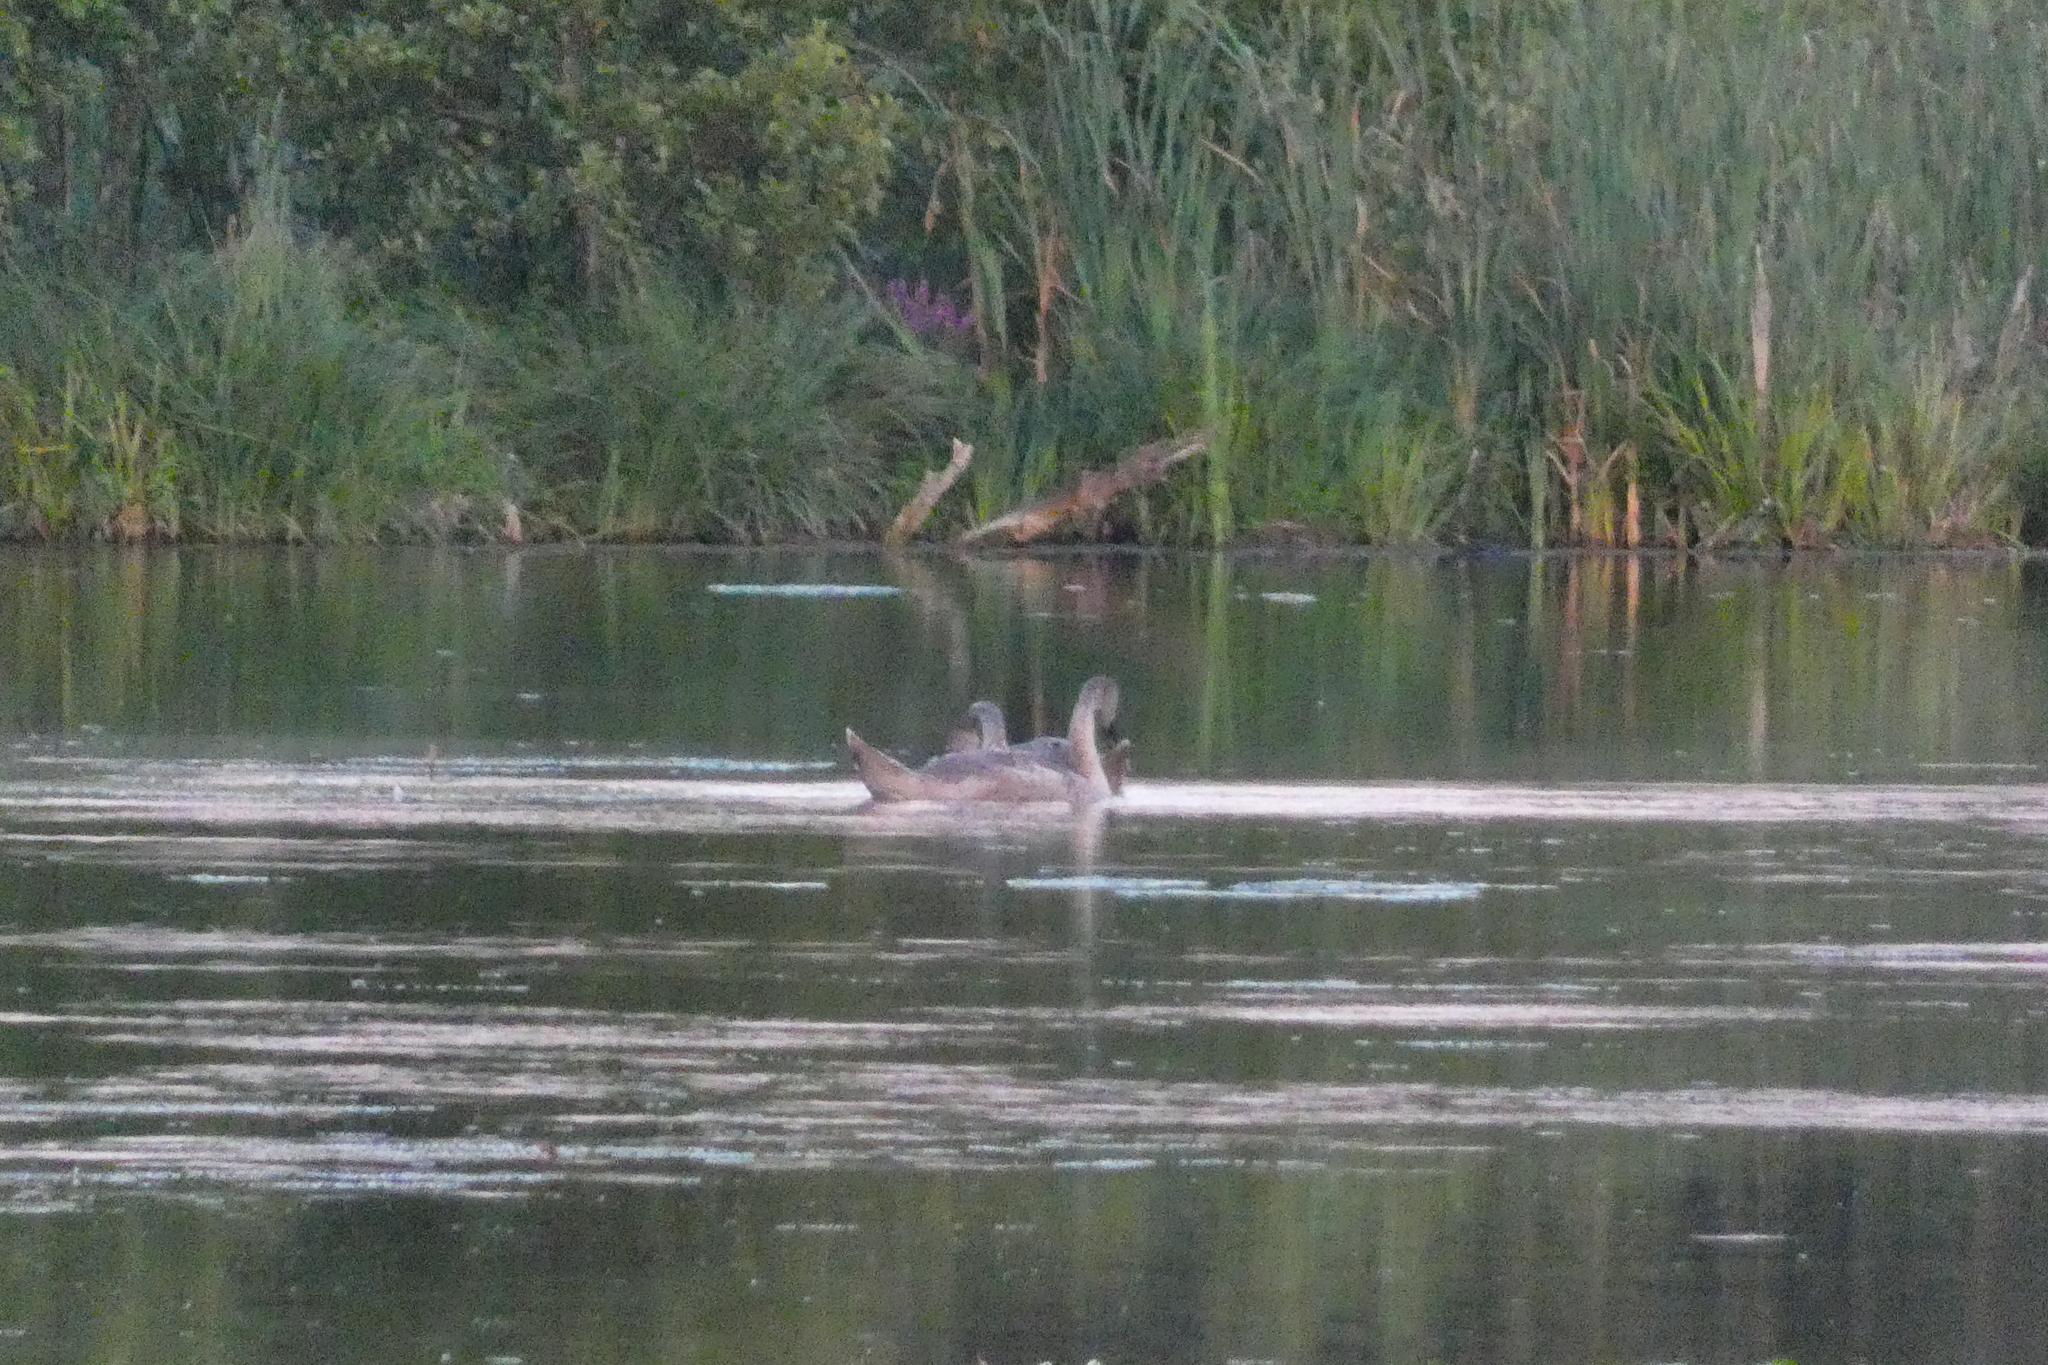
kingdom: Animalia
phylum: Chordata
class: Aves
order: Anseriformes
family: Anatidae
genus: Cygnus
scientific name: Cygnus olor
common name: Mute swan
